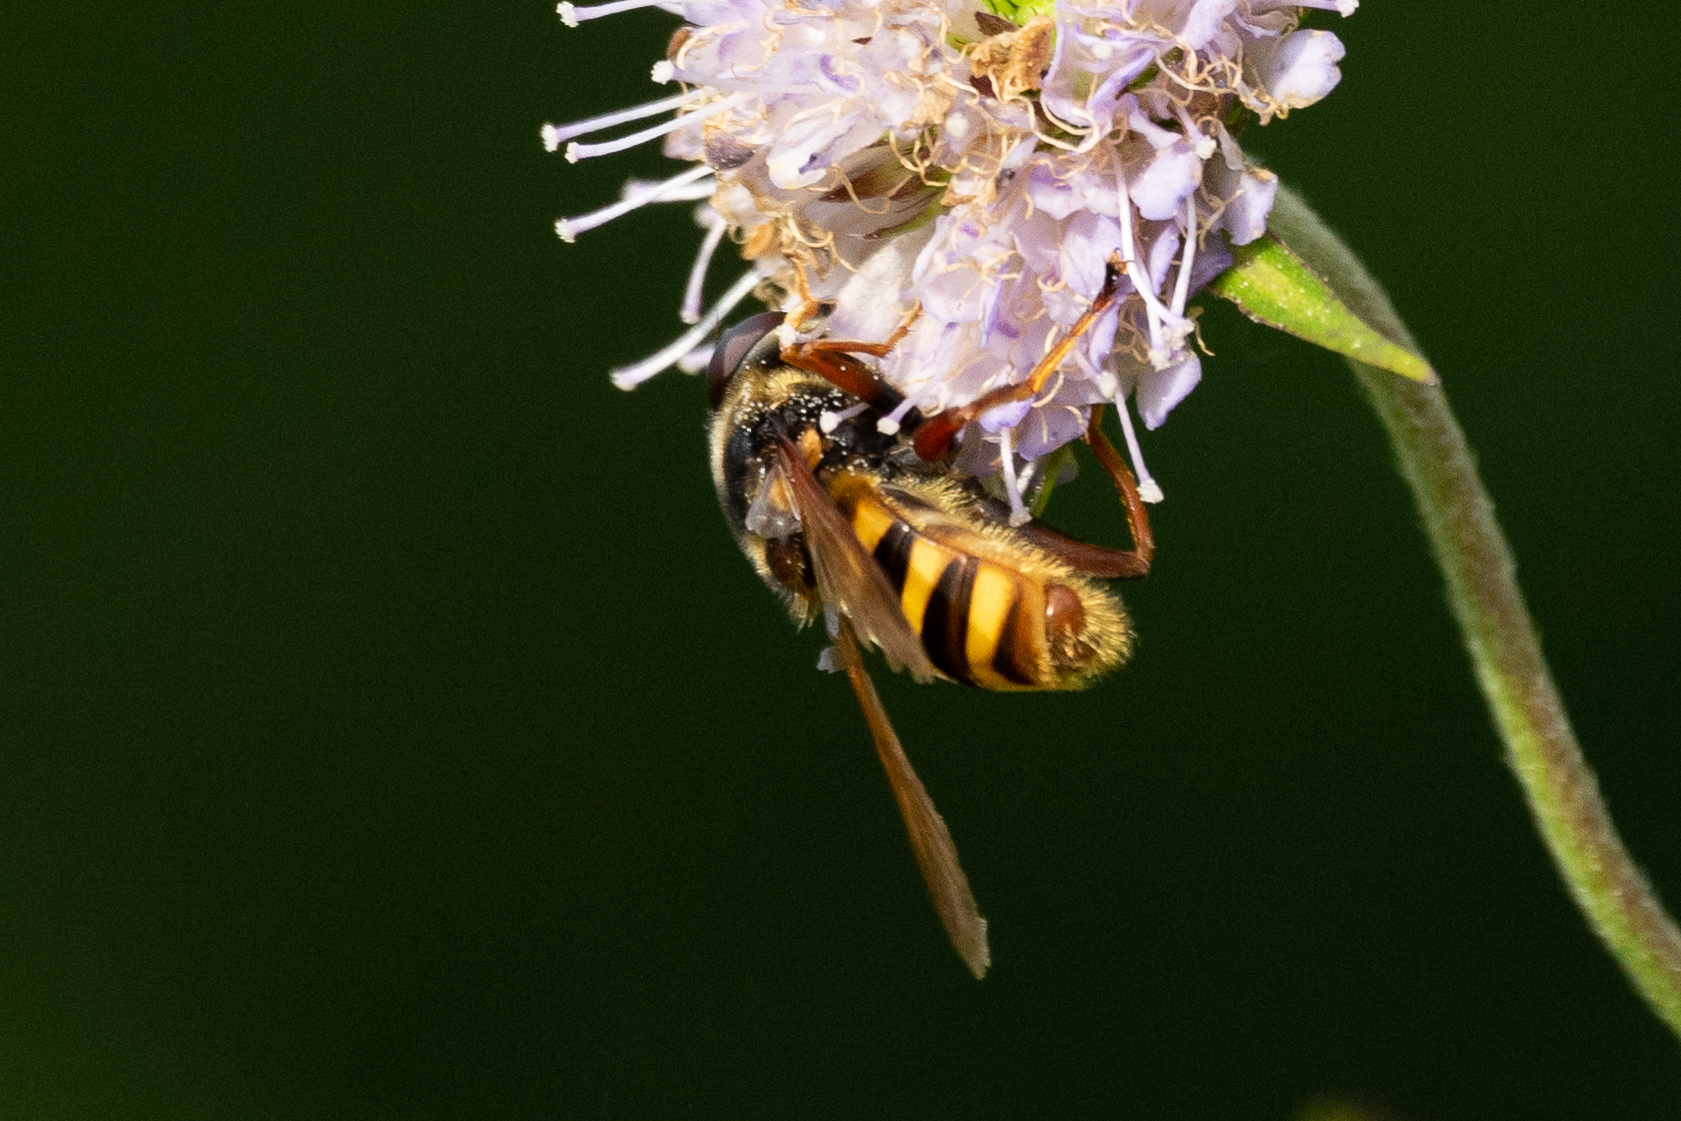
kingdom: Animalia
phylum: Arthropoda
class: Insecta
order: Diptera
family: Syrphidae
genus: Sericomyia
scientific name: Sericomyia silentis
